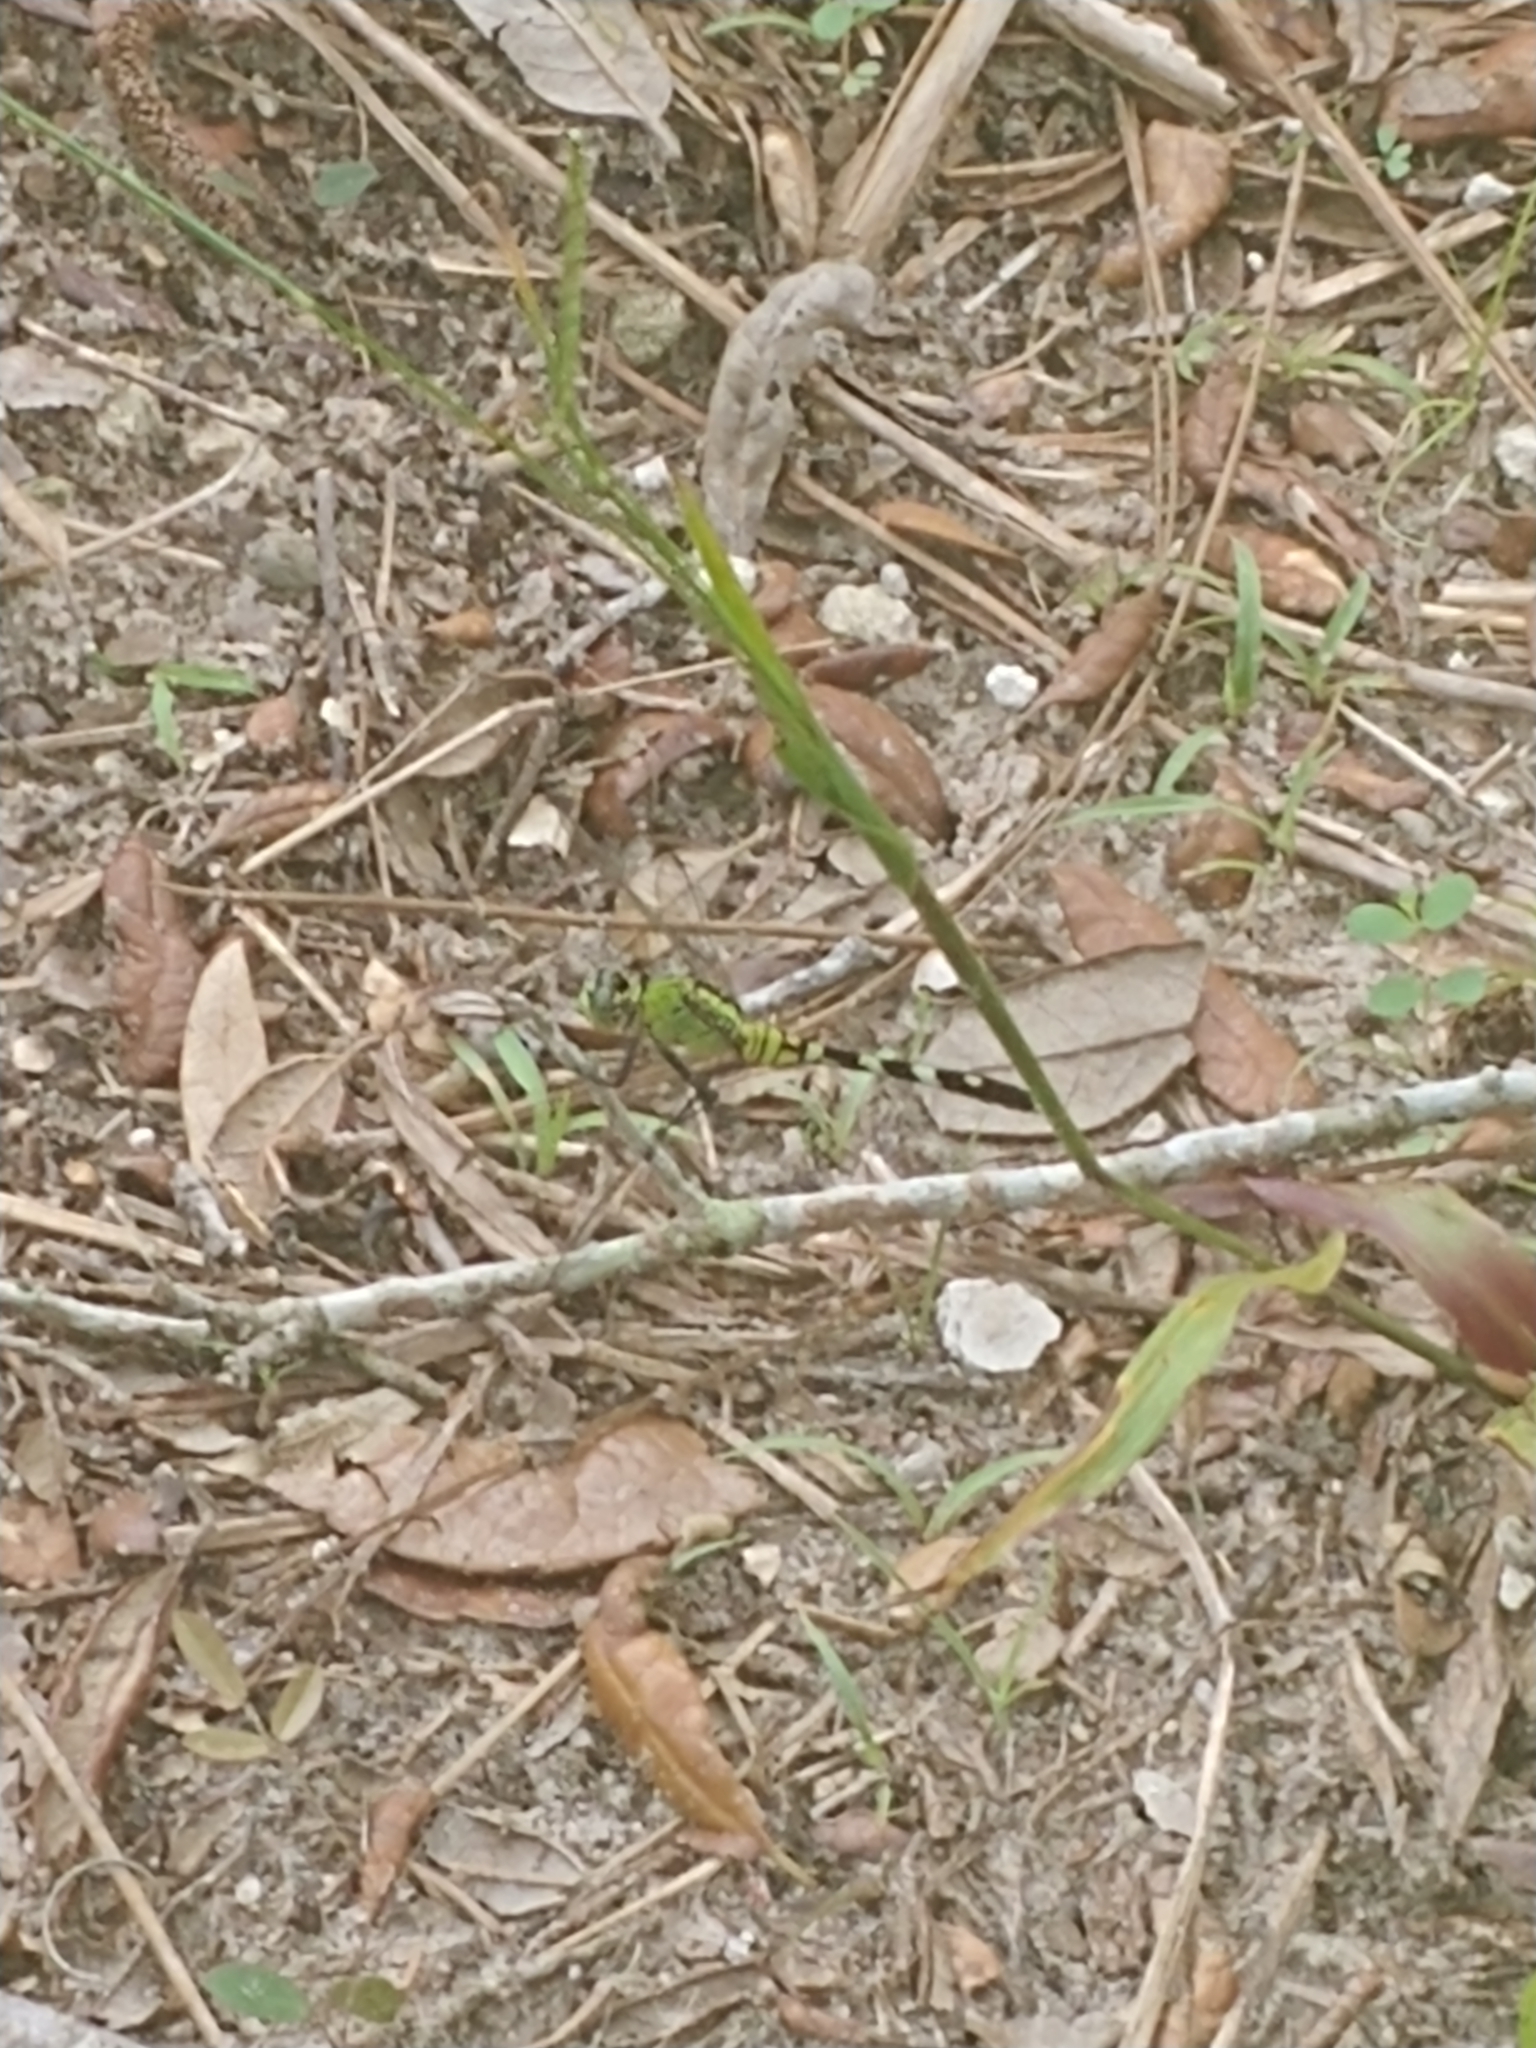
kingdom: Animalia
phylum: Arthropoda
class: Insecta
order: Odonata
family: Libellulidae
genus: Erythemis
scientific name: Erythemis simplicicollis
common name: Eastern pondhawk
